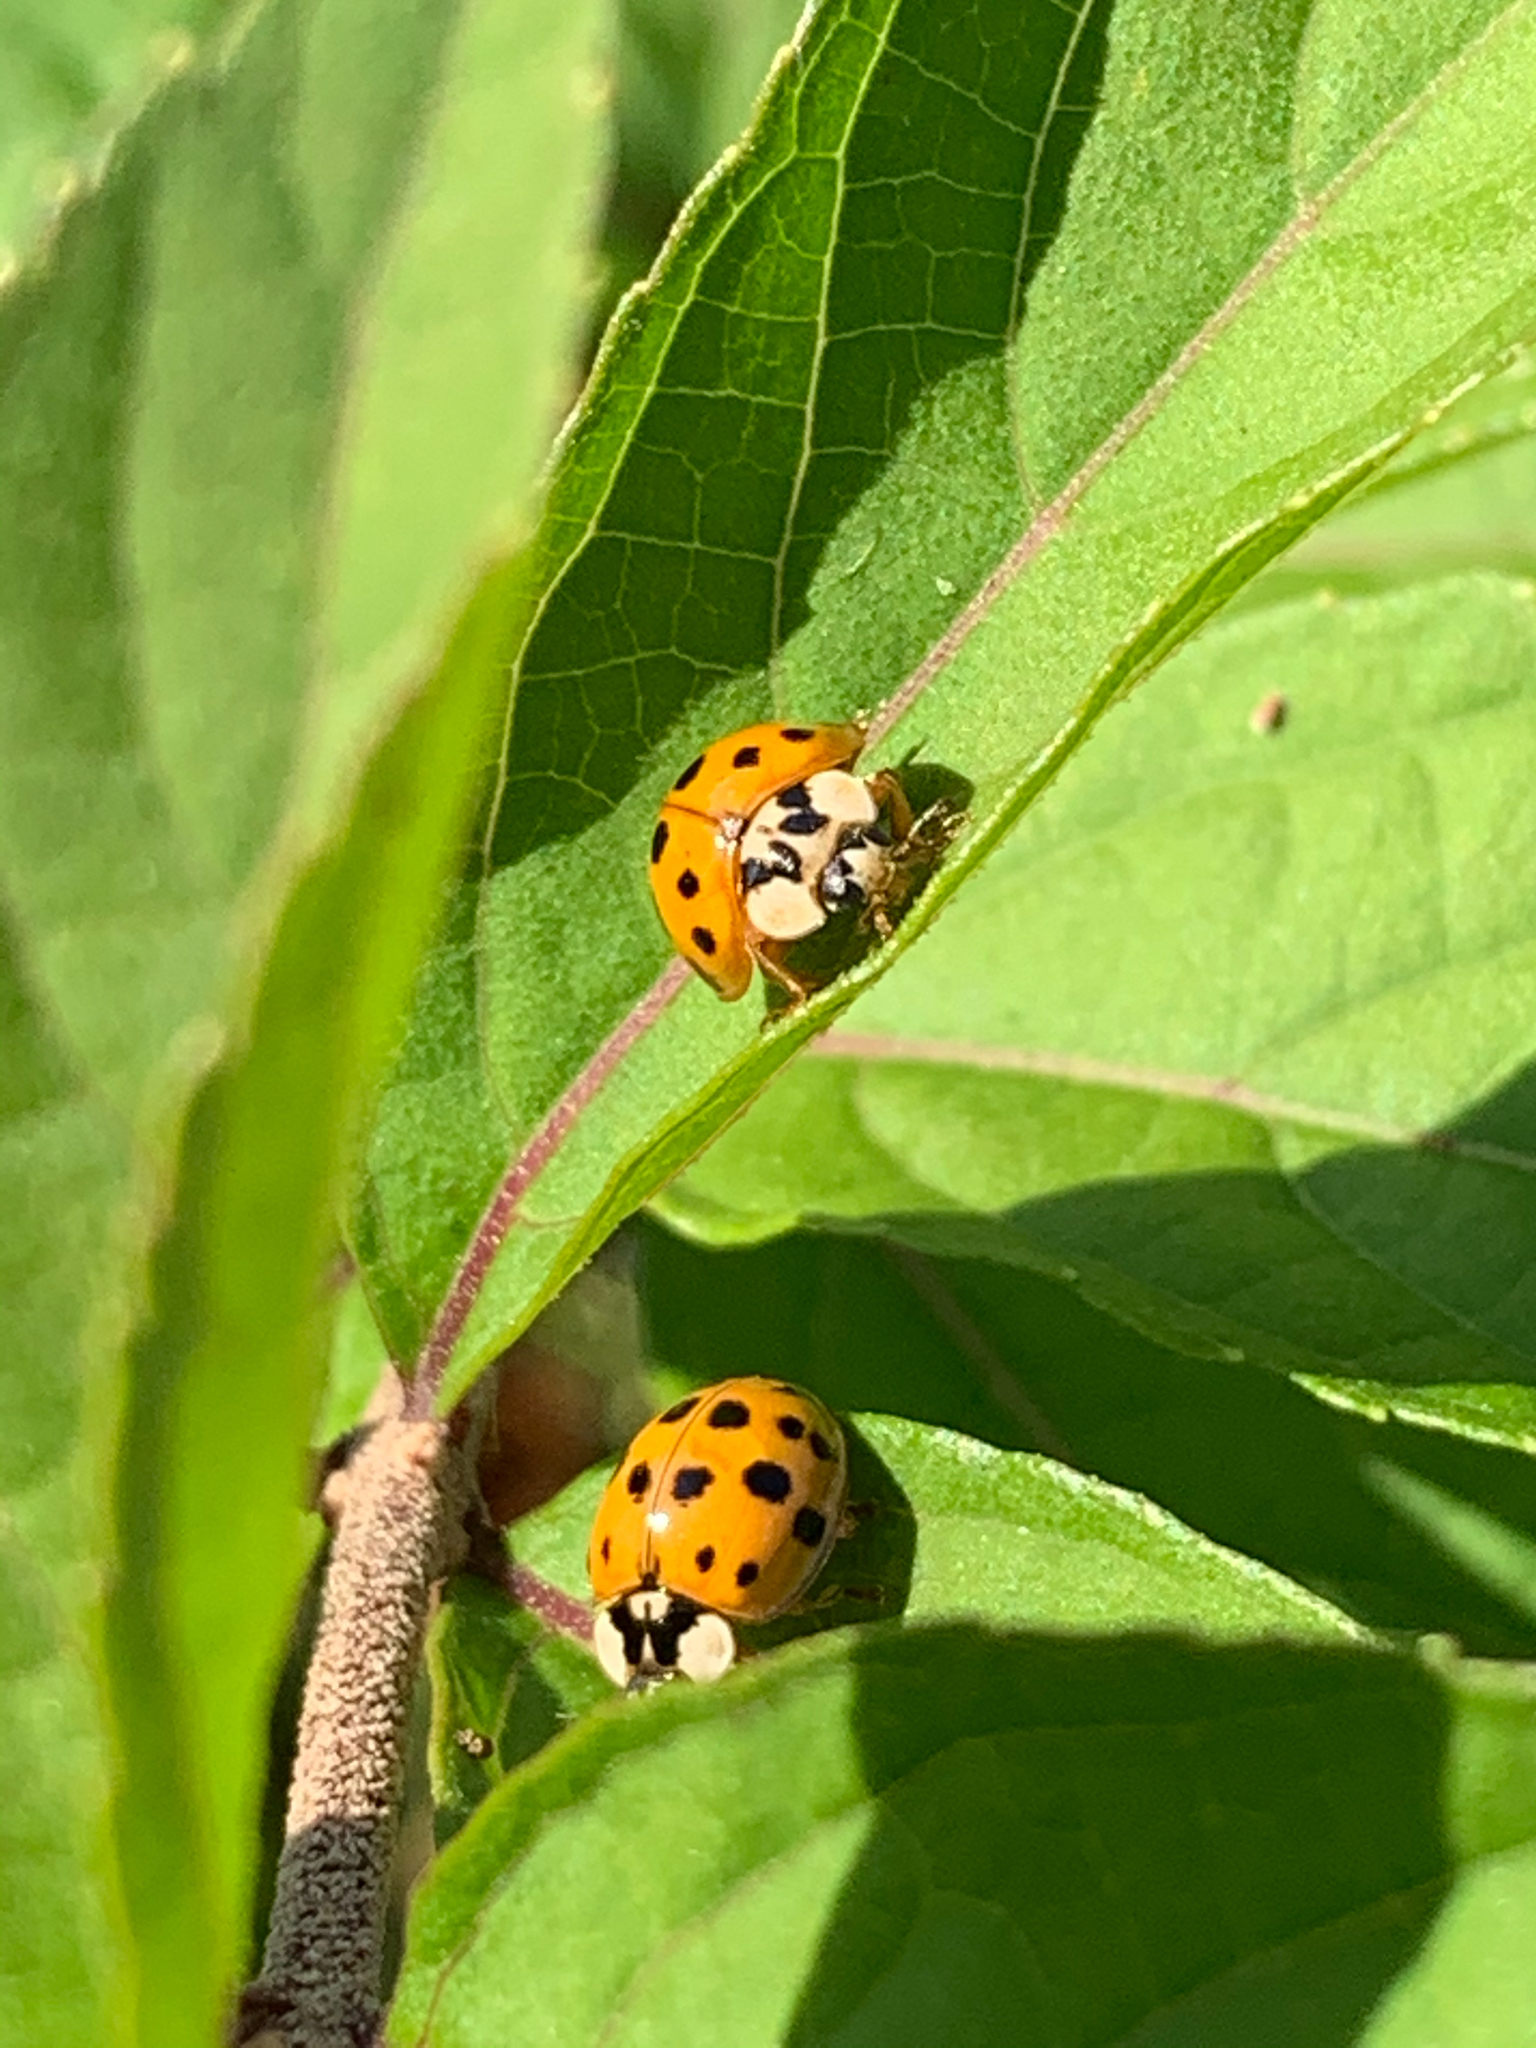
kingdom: Animalia
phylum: Arthropoda
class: Insecta
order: Coleoptera
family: Coccinellidae
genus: Harmonia
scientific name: Harmonia axyridis
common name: Harlequin ladybird
